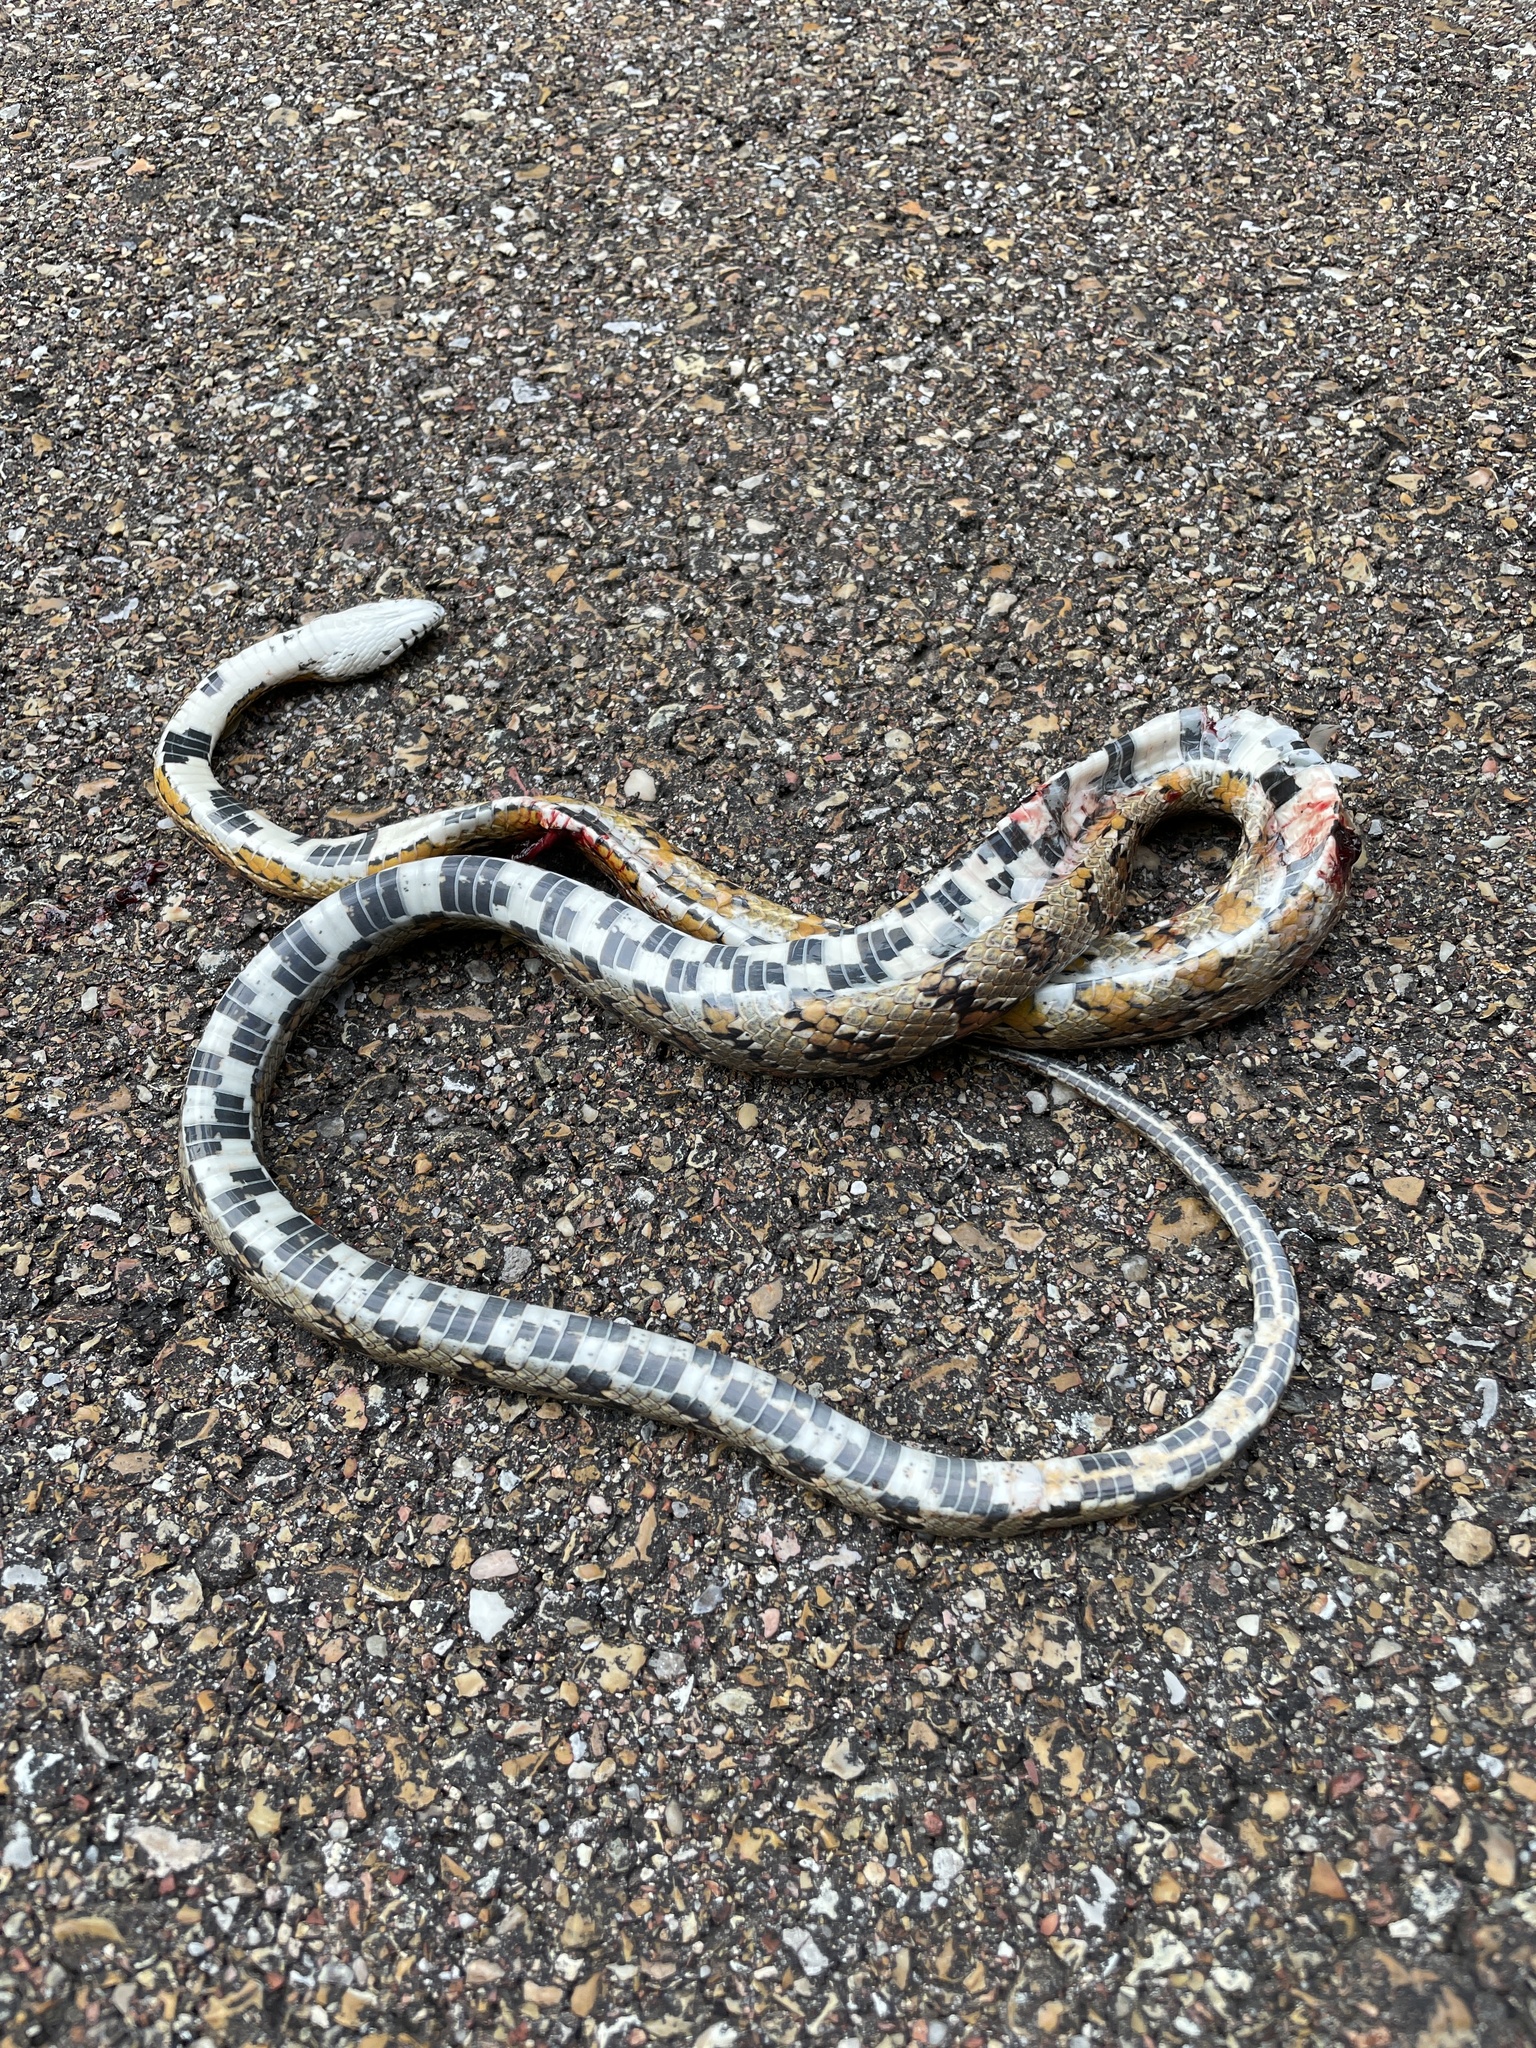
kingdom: Animalia
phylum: Chordata
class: Squamata
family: Colubridae
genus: Pantherophis
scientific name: Pantherophis guttatus
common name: Red cornsnake
